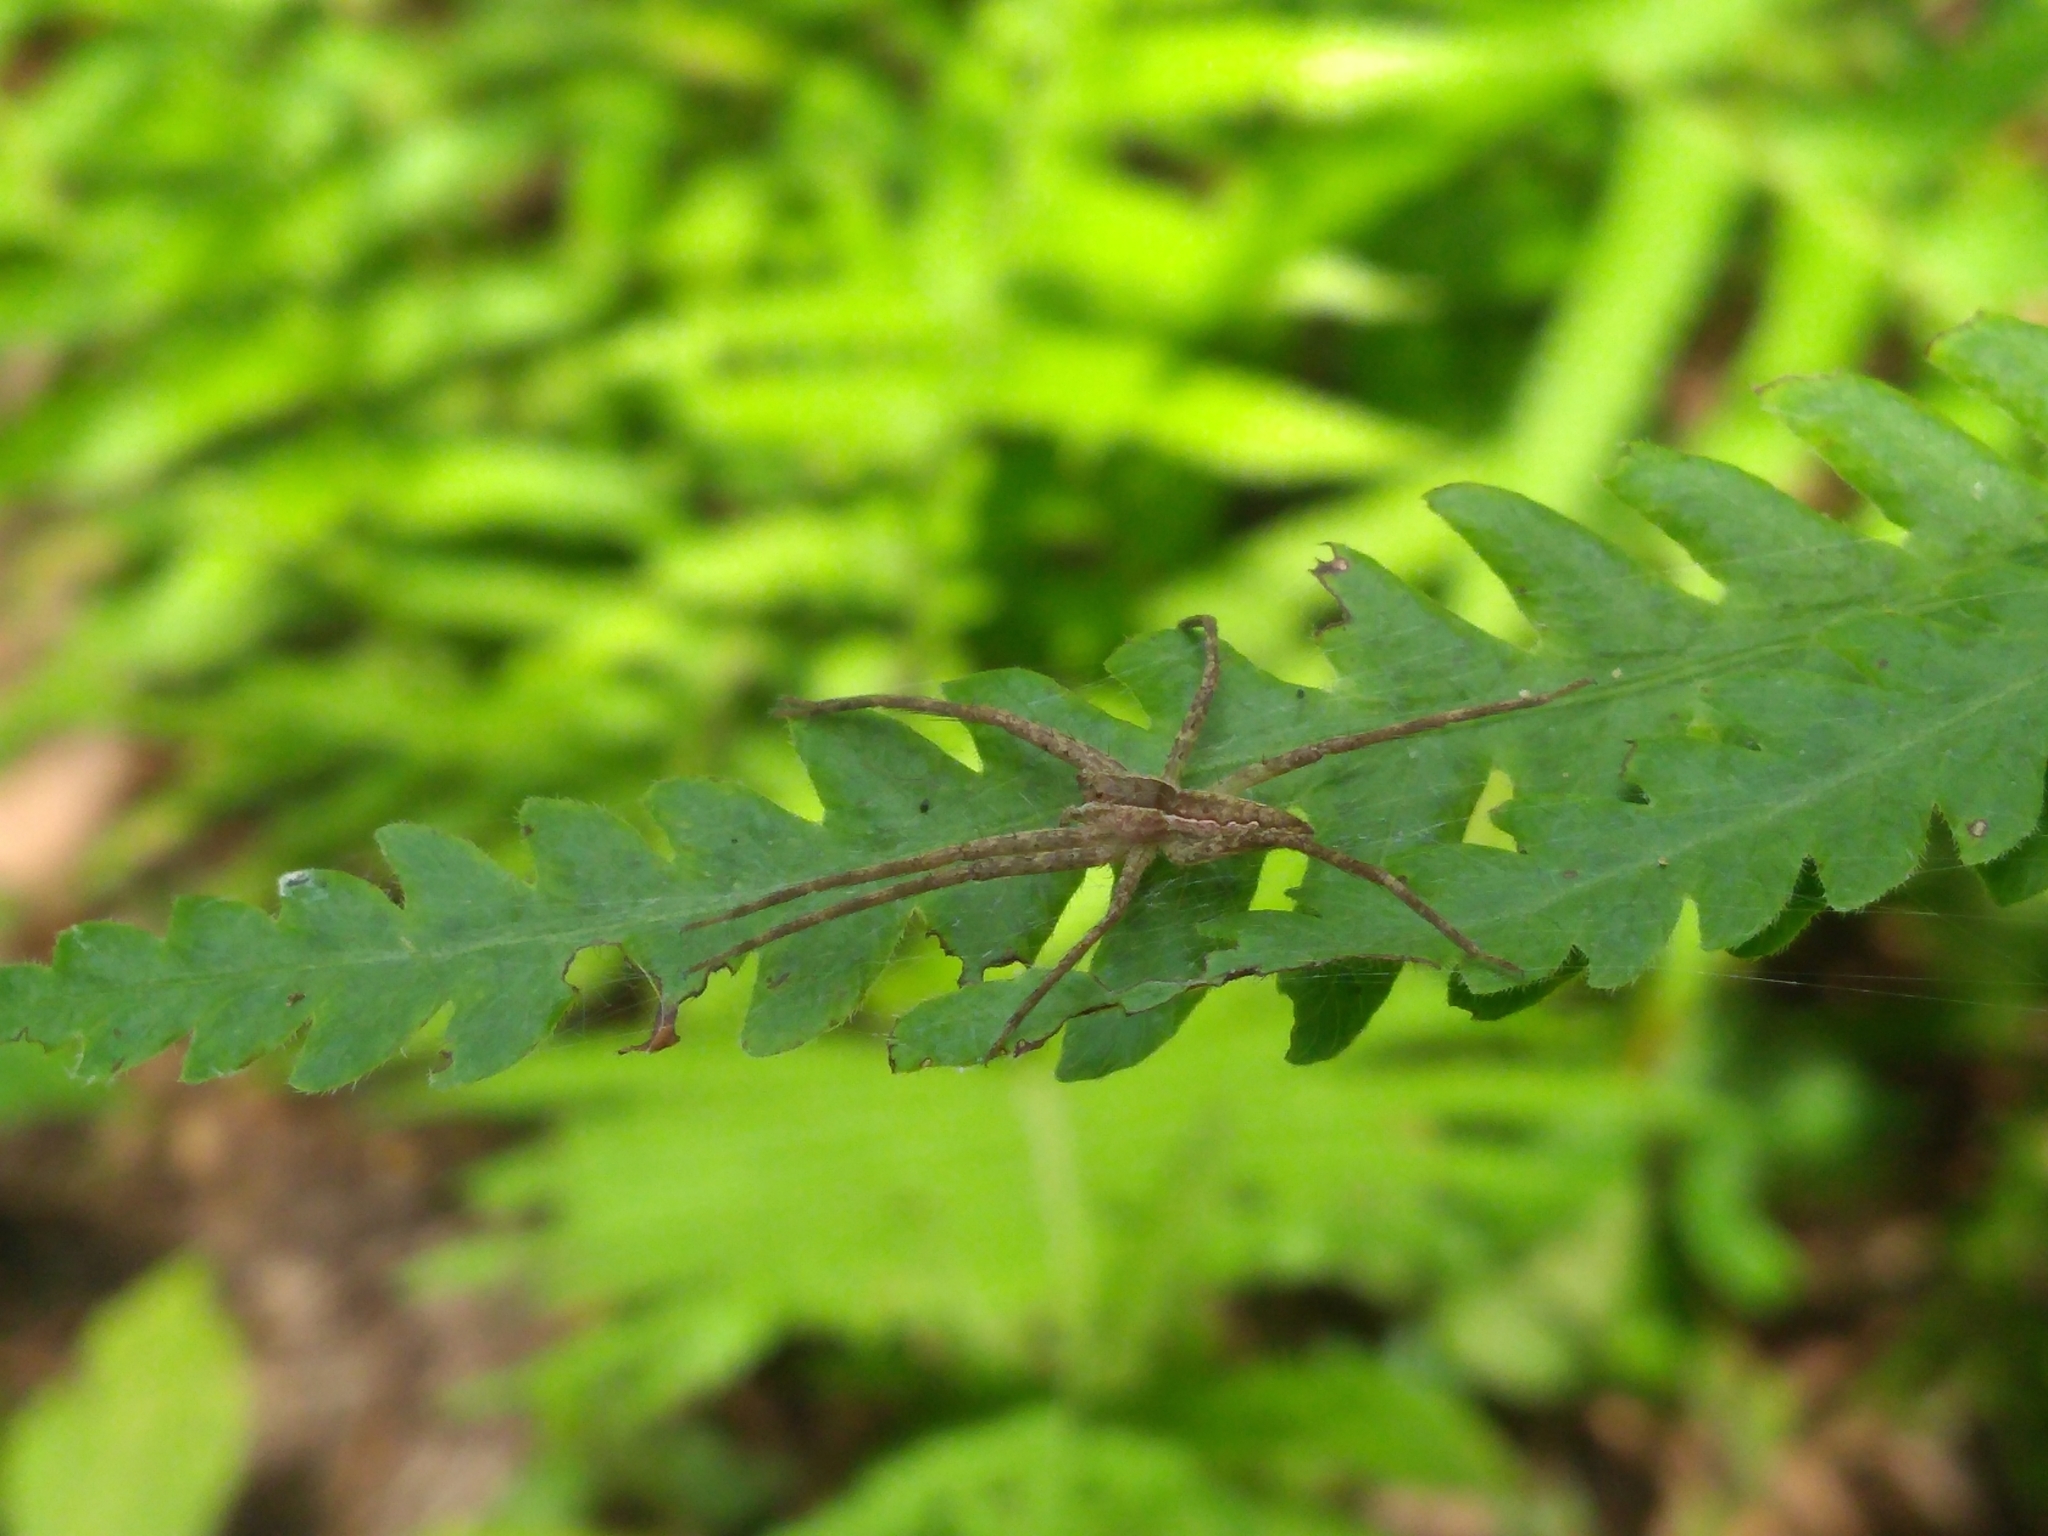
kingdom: Animalia
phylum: Arthropoda
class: Arachnida
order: Araneae
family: Pisauridae
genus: Pisaurina
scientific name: Pisaurina mira
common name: American nursery web spider
